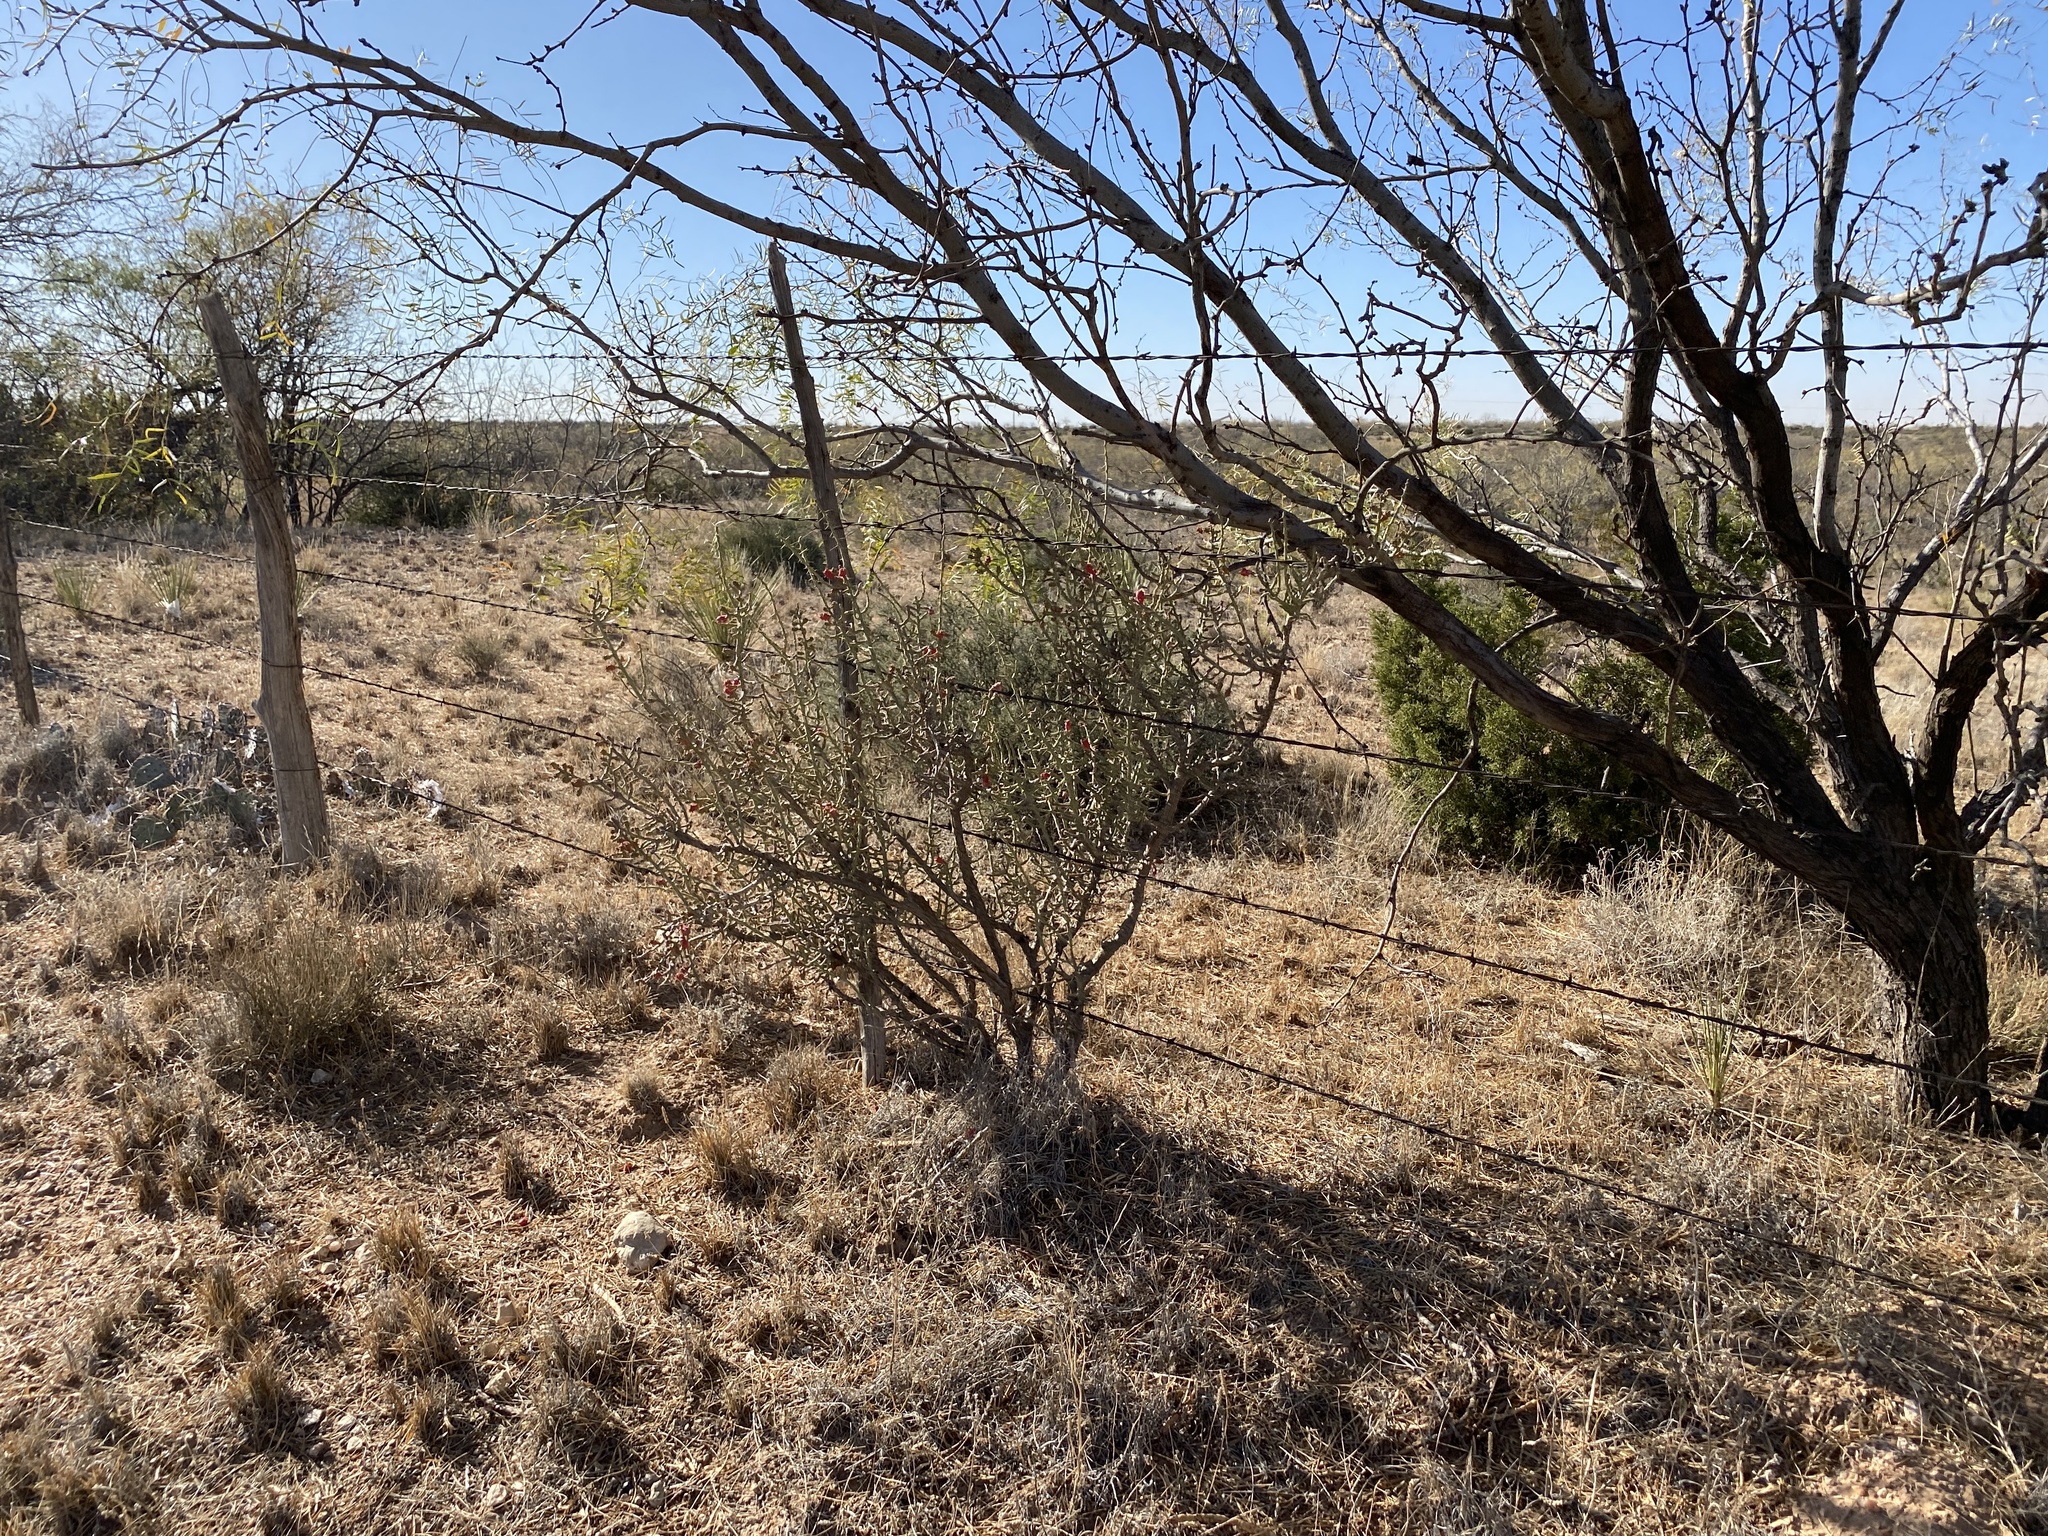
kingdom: Plantae
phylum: Tracheophyta
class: Magnoliopsida
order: Caryophyllales
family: Cactaceae
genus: Cylindropuntia
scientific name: Cylindropuntia leptocaulis
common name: Christmas cactus
